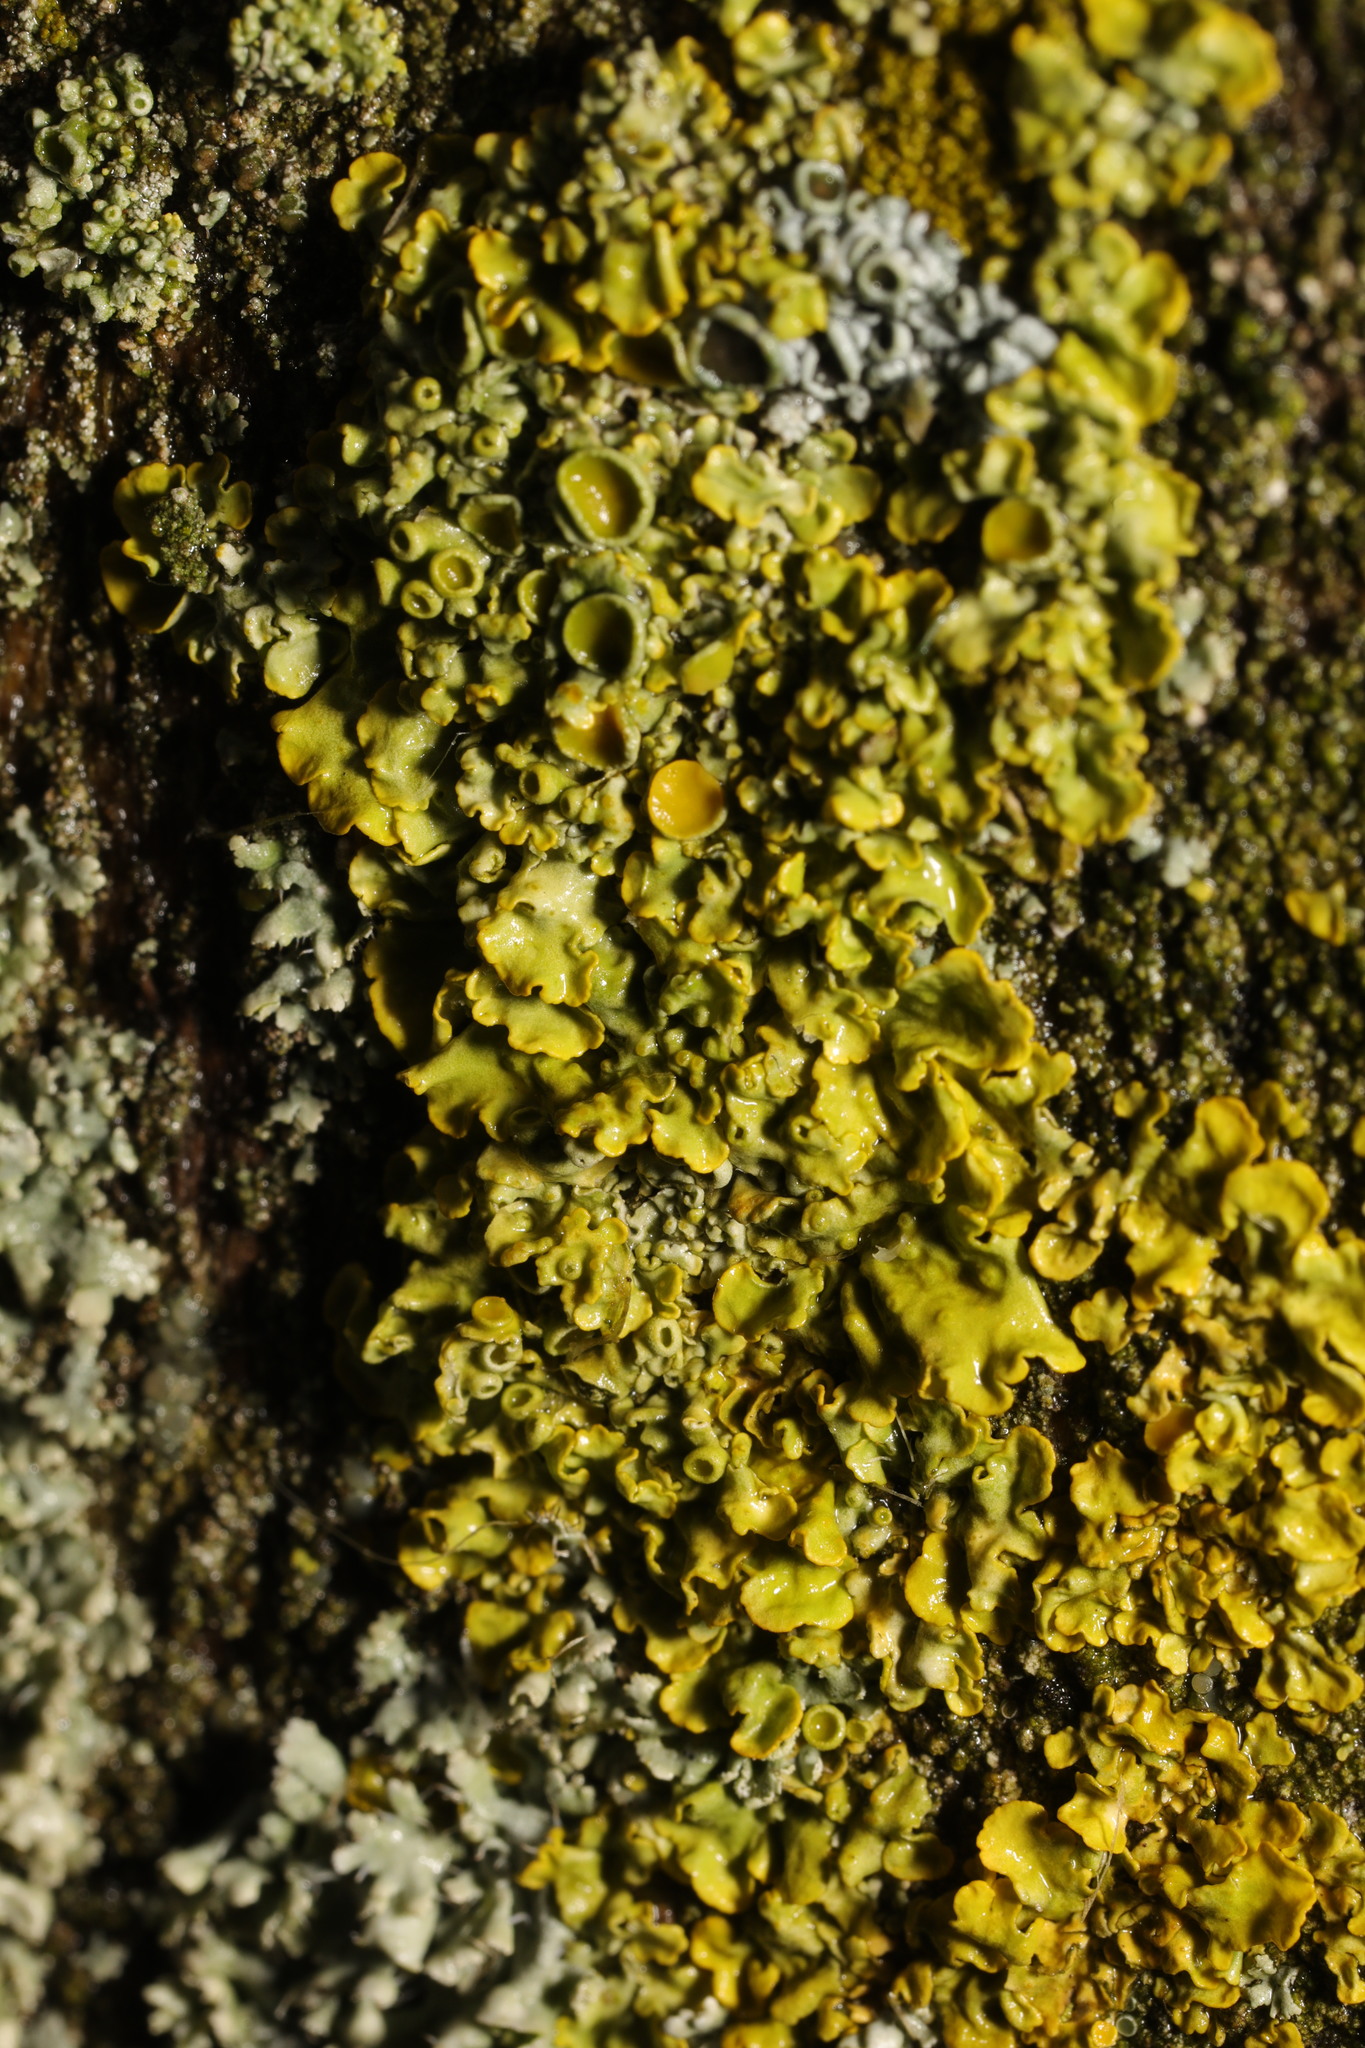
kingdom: Fungi
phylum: Ascomycota
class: Lecanoromycetes
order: Teloschistales
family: Teloschistaceae
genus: Xanthoria
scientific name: Xanthoria parietina
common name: Common orange lichen
